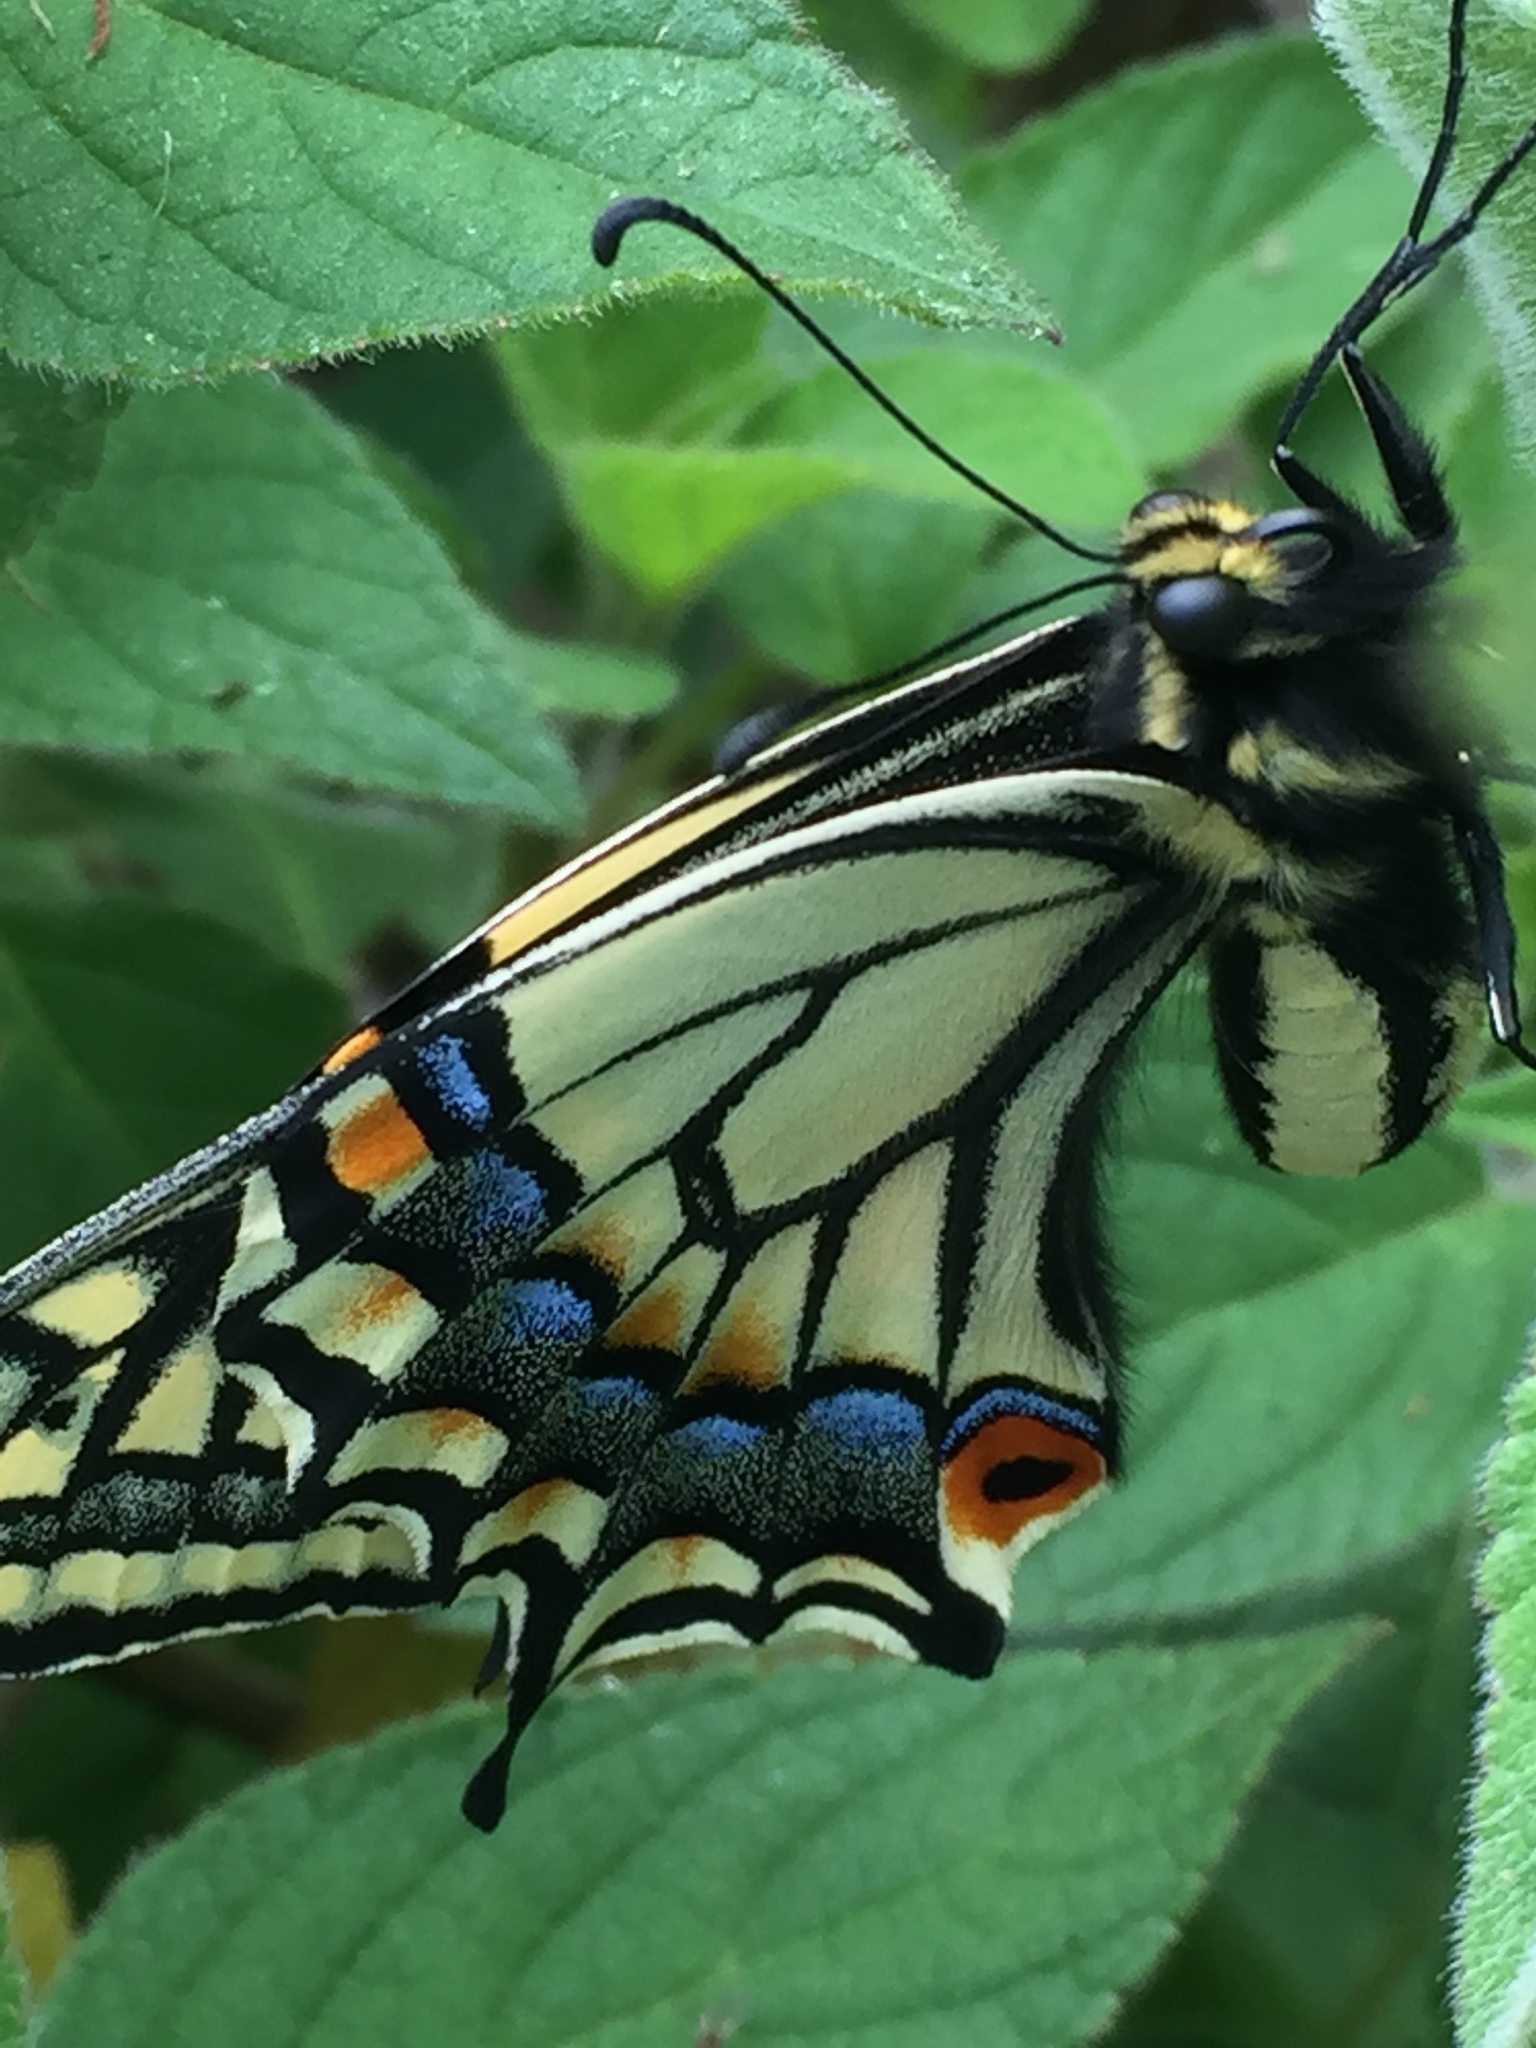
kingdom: Animalia
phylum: Arthropoda
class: Insecta
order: Lepidoptera
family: Papilionidae
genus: Papilio
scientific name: Papilio zelicaon
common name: Anise swallowtail
